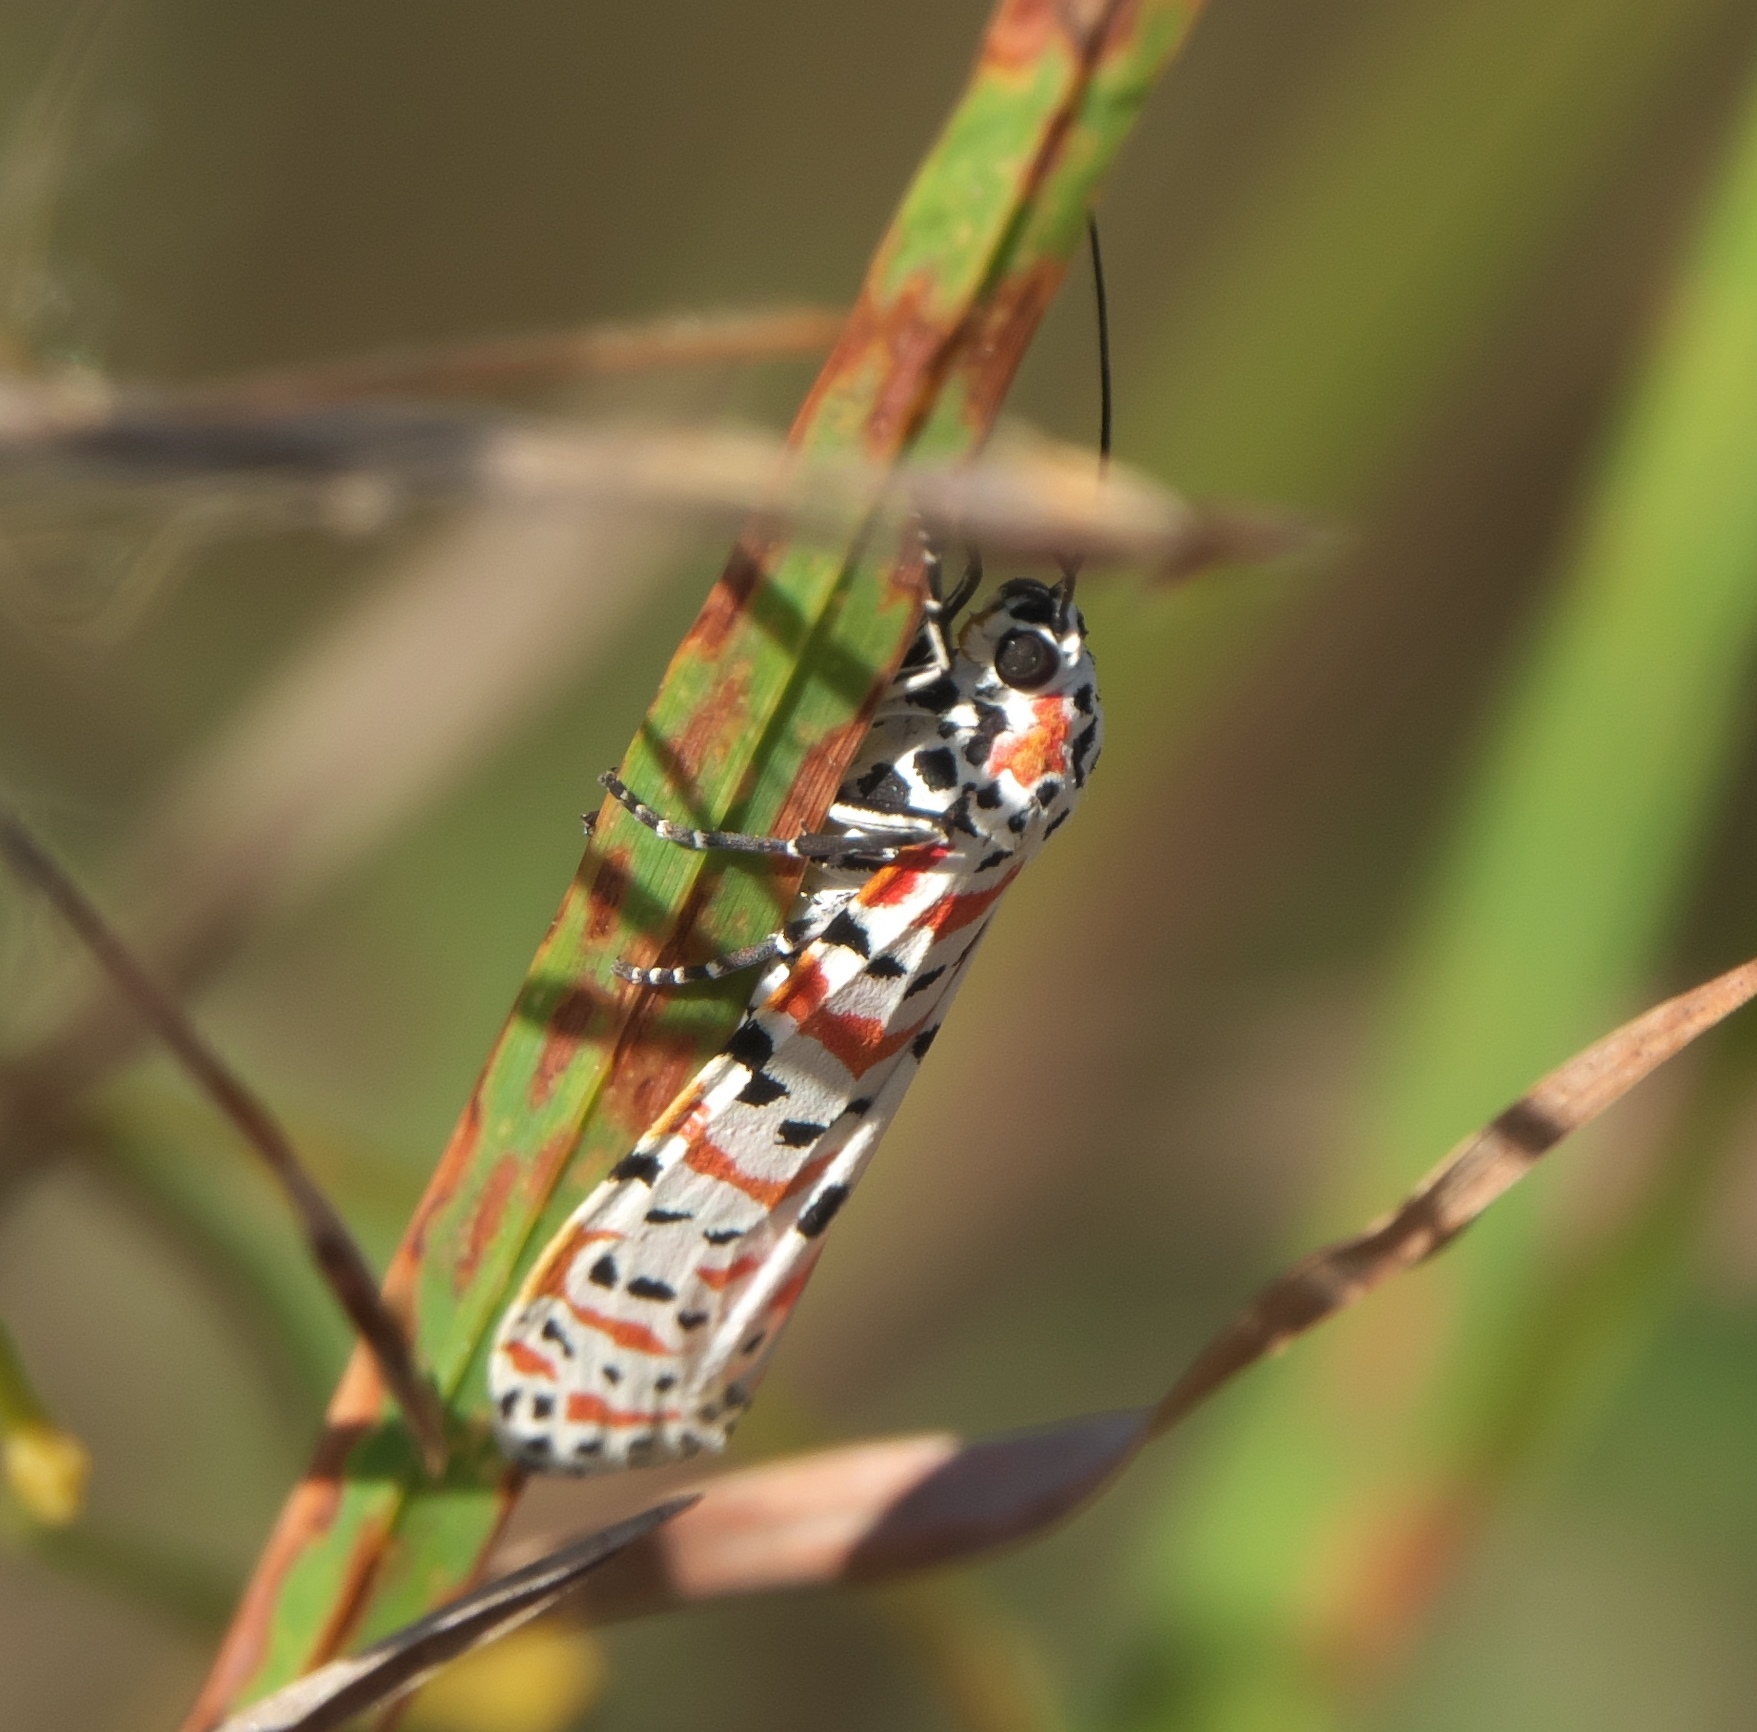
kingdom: Animalia
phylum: Arthropoda
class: Insecta
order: Lepidoptera
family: Erebidae
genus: Utetheisa
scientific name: Utetheisa ornatrix
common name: Beautiful utetheisa
